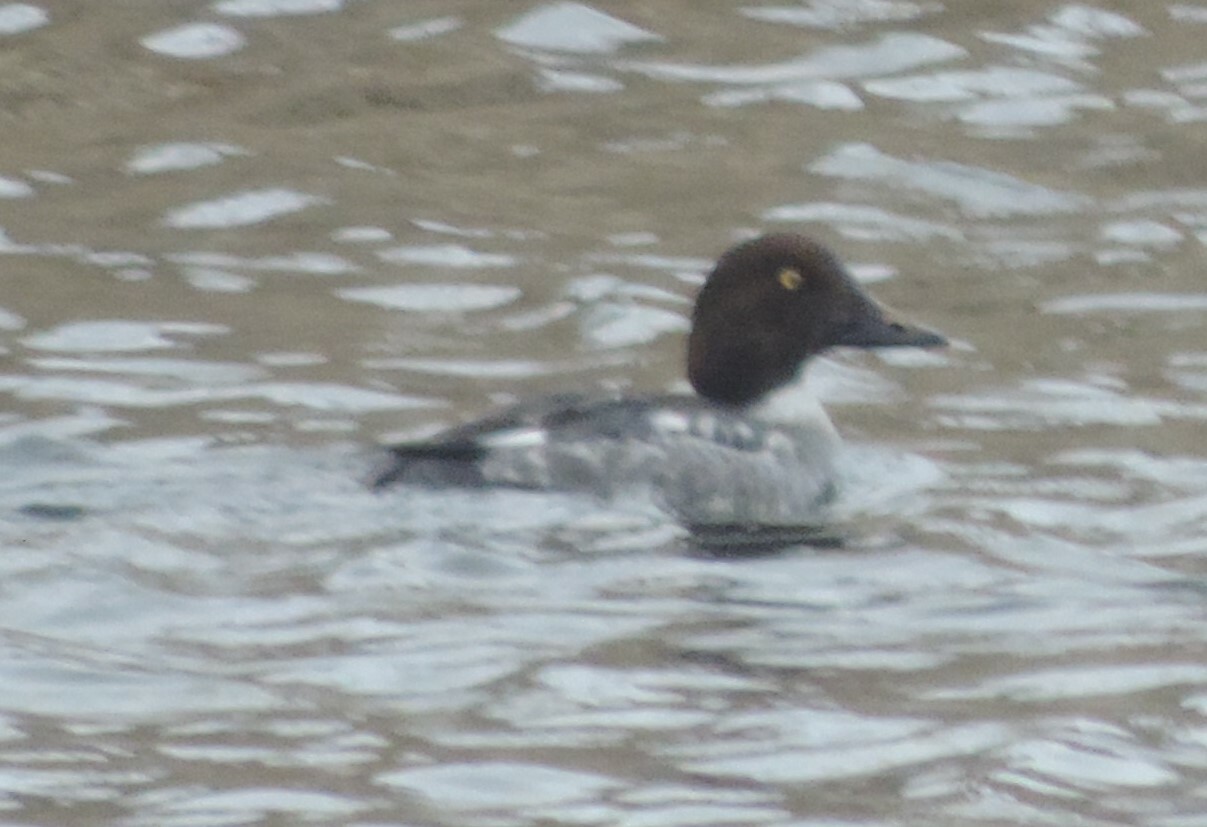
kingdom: Animalia
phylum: Chordata
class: Aves
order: Anseriformes
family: Anatidae
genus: Bucephala
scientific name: Bucephala clangula
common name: Common goldeneye
